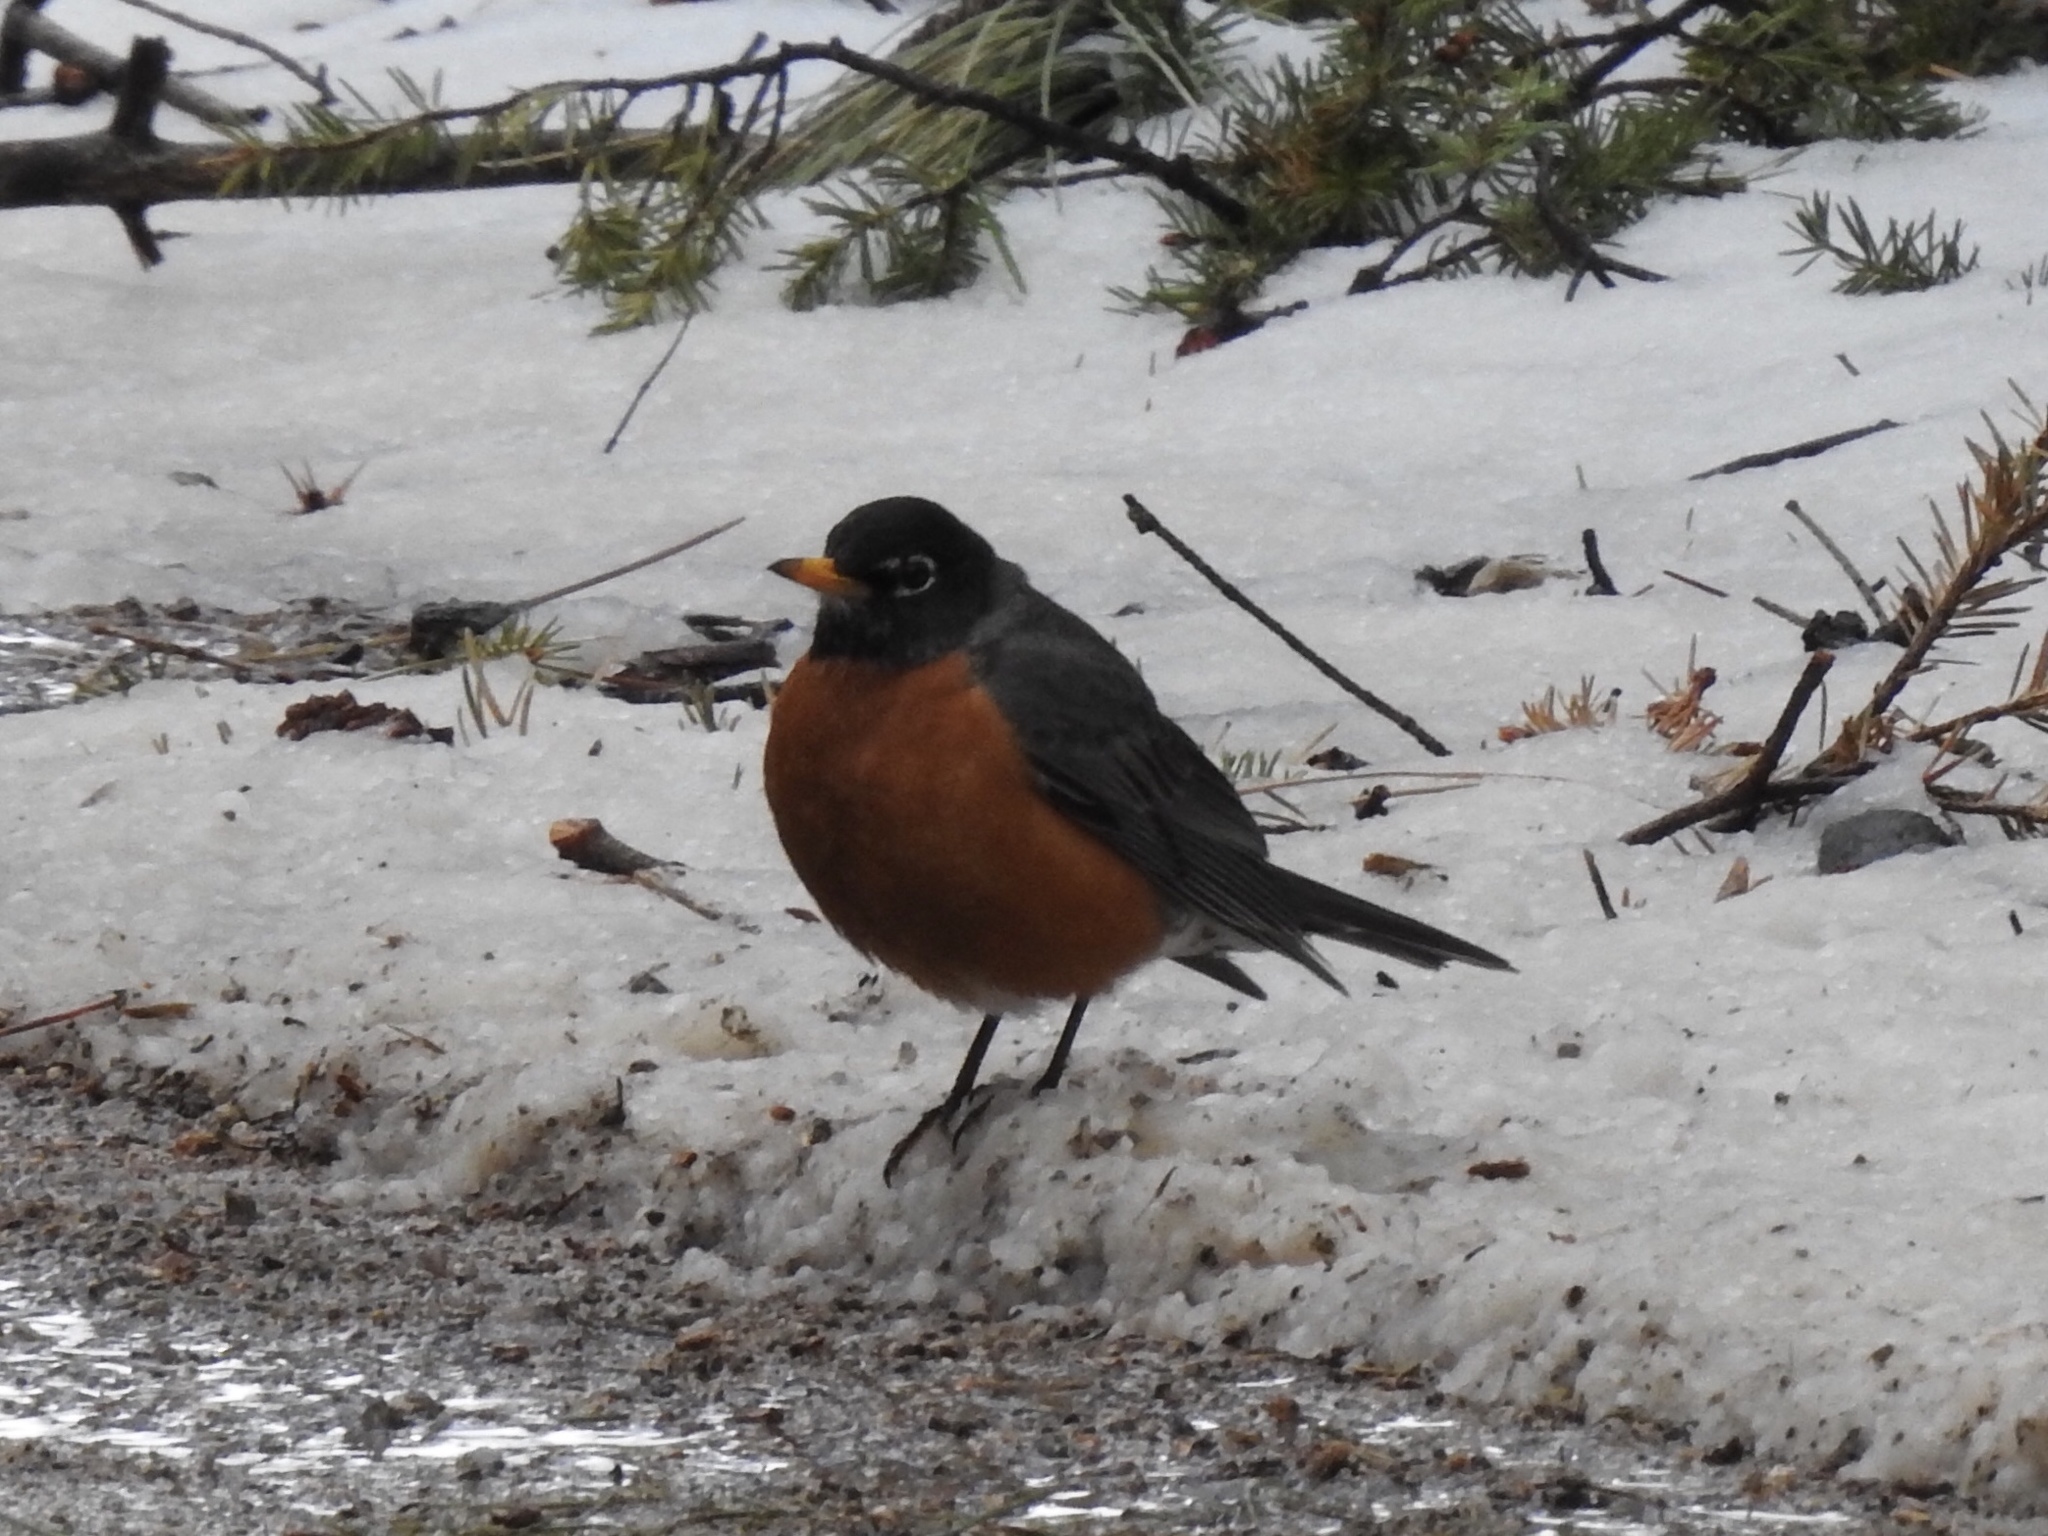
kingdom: Animalia
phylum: Chordata
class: Aves
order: Passeriformes
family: Turdidae
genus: Turdus
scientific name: Turdus migratorius
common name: American robin
